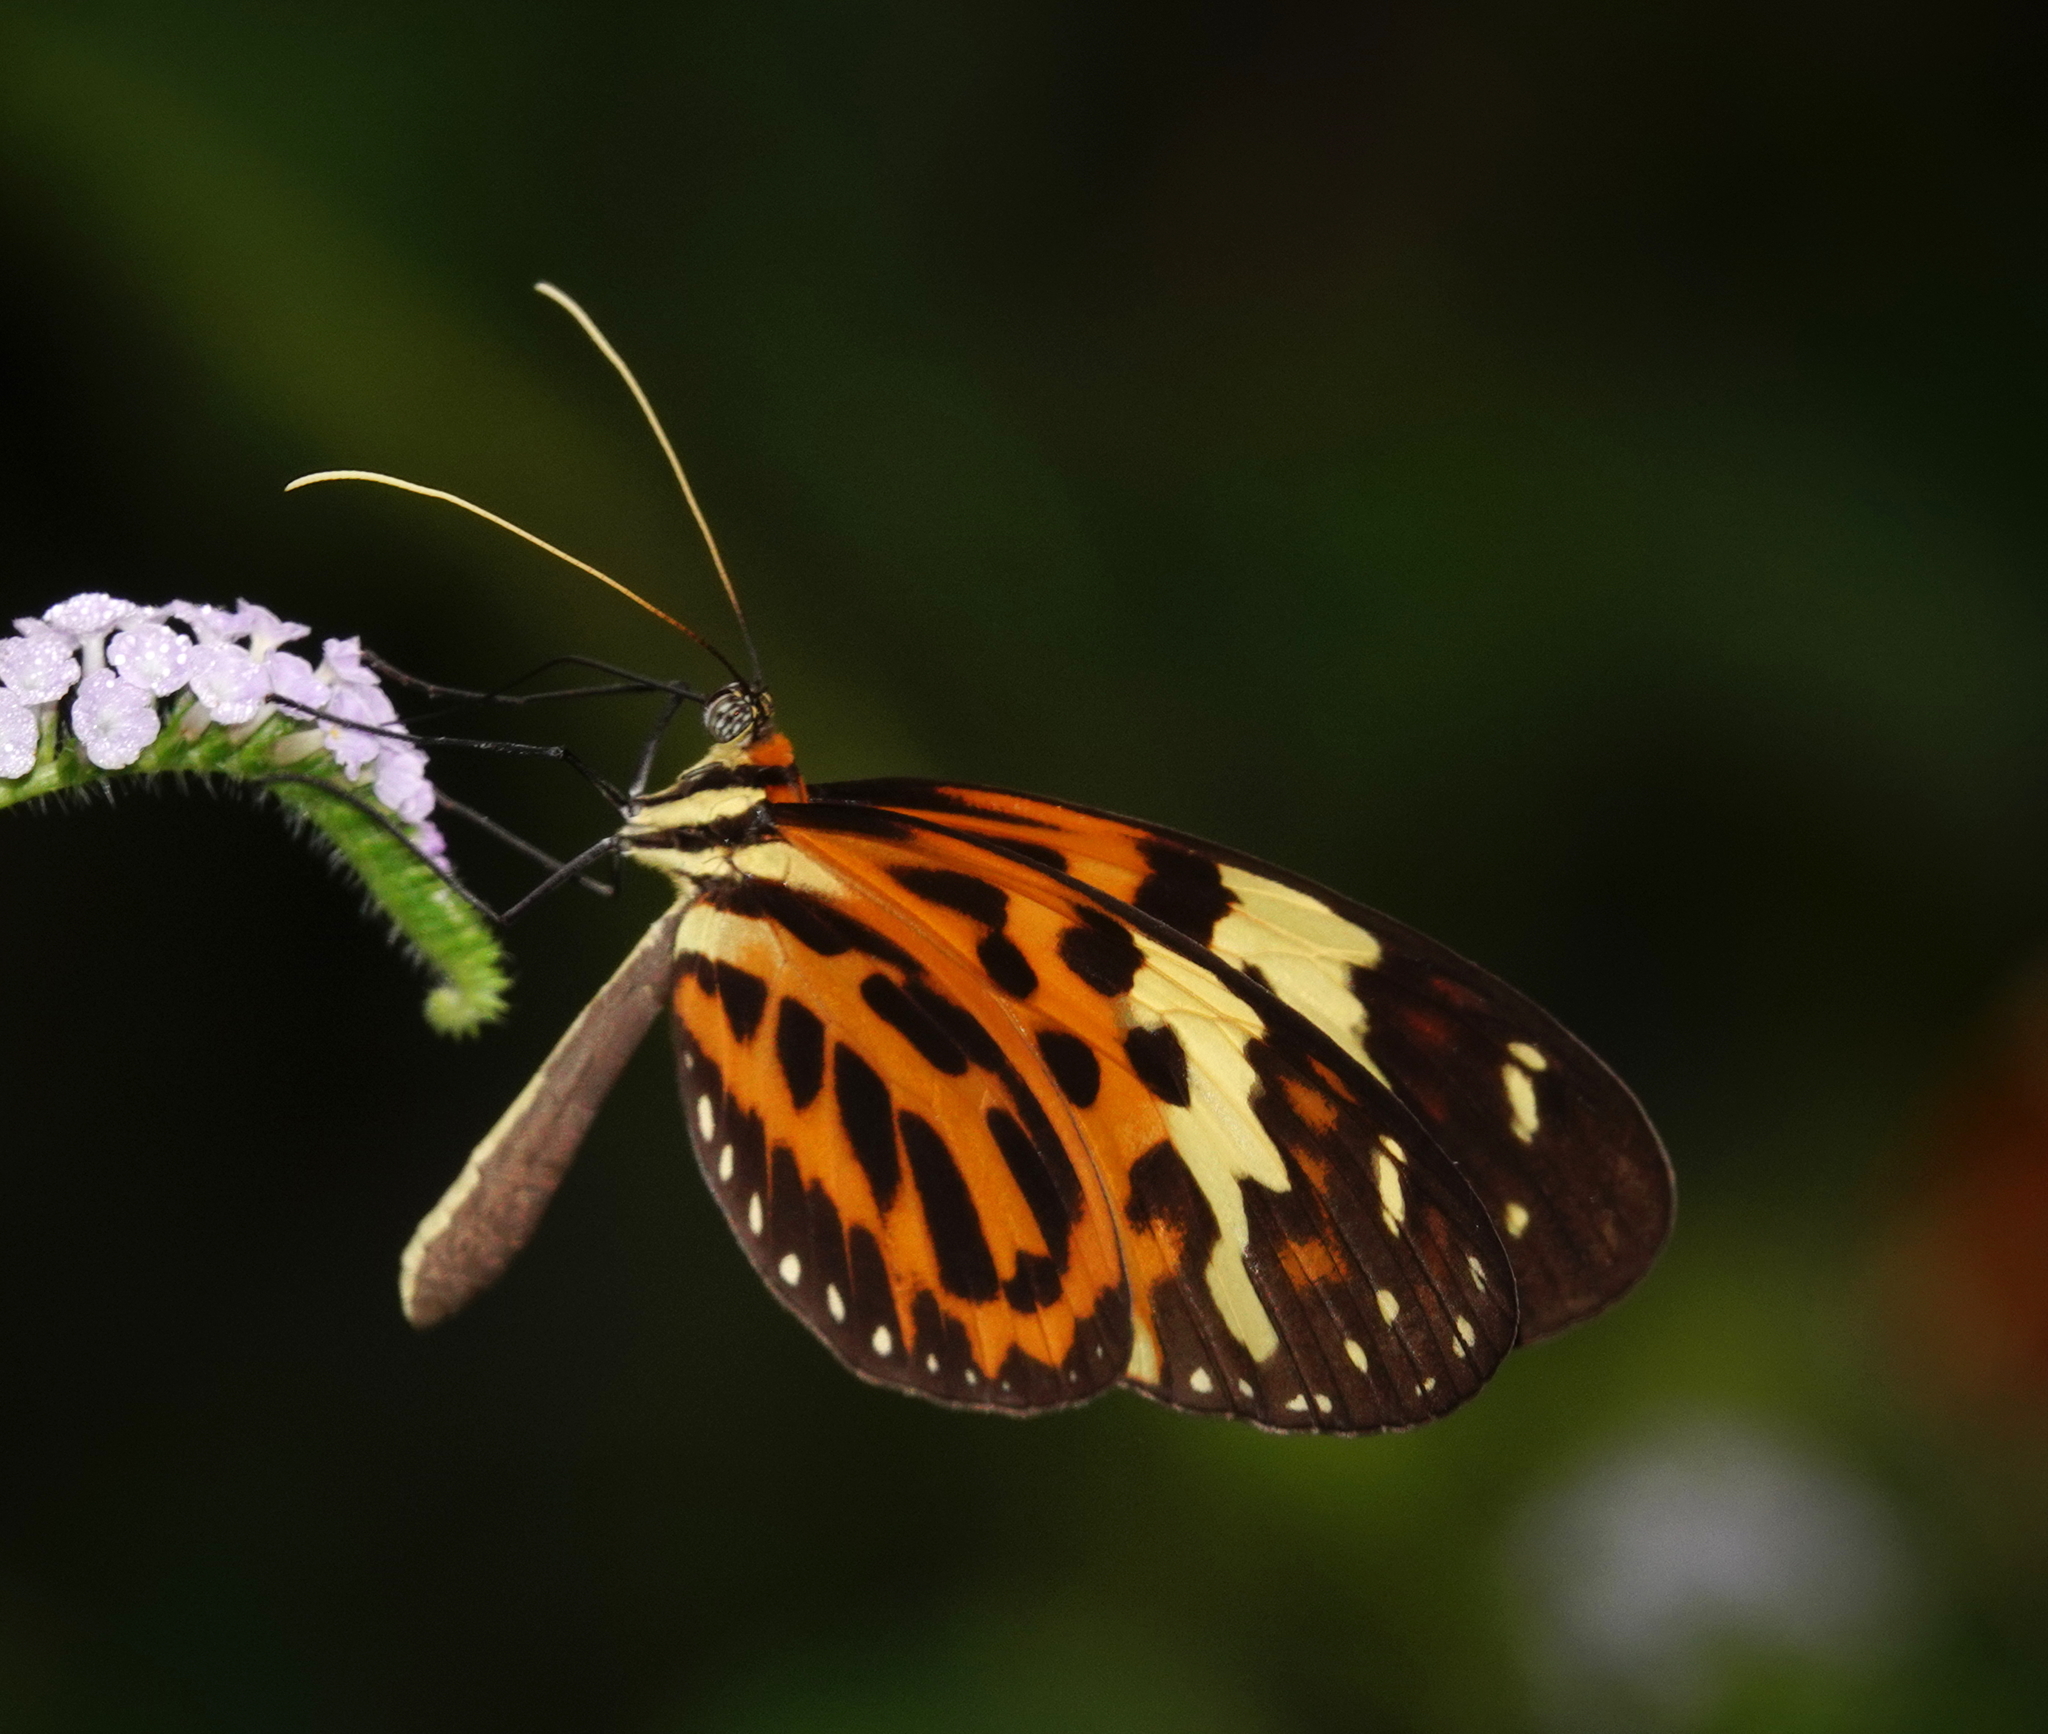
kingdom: Animalia
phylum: Arthropoda
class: Insecta
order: Lepidoptera
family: Nymphalidae
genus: Melinaea
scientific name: Melinaea mneme
